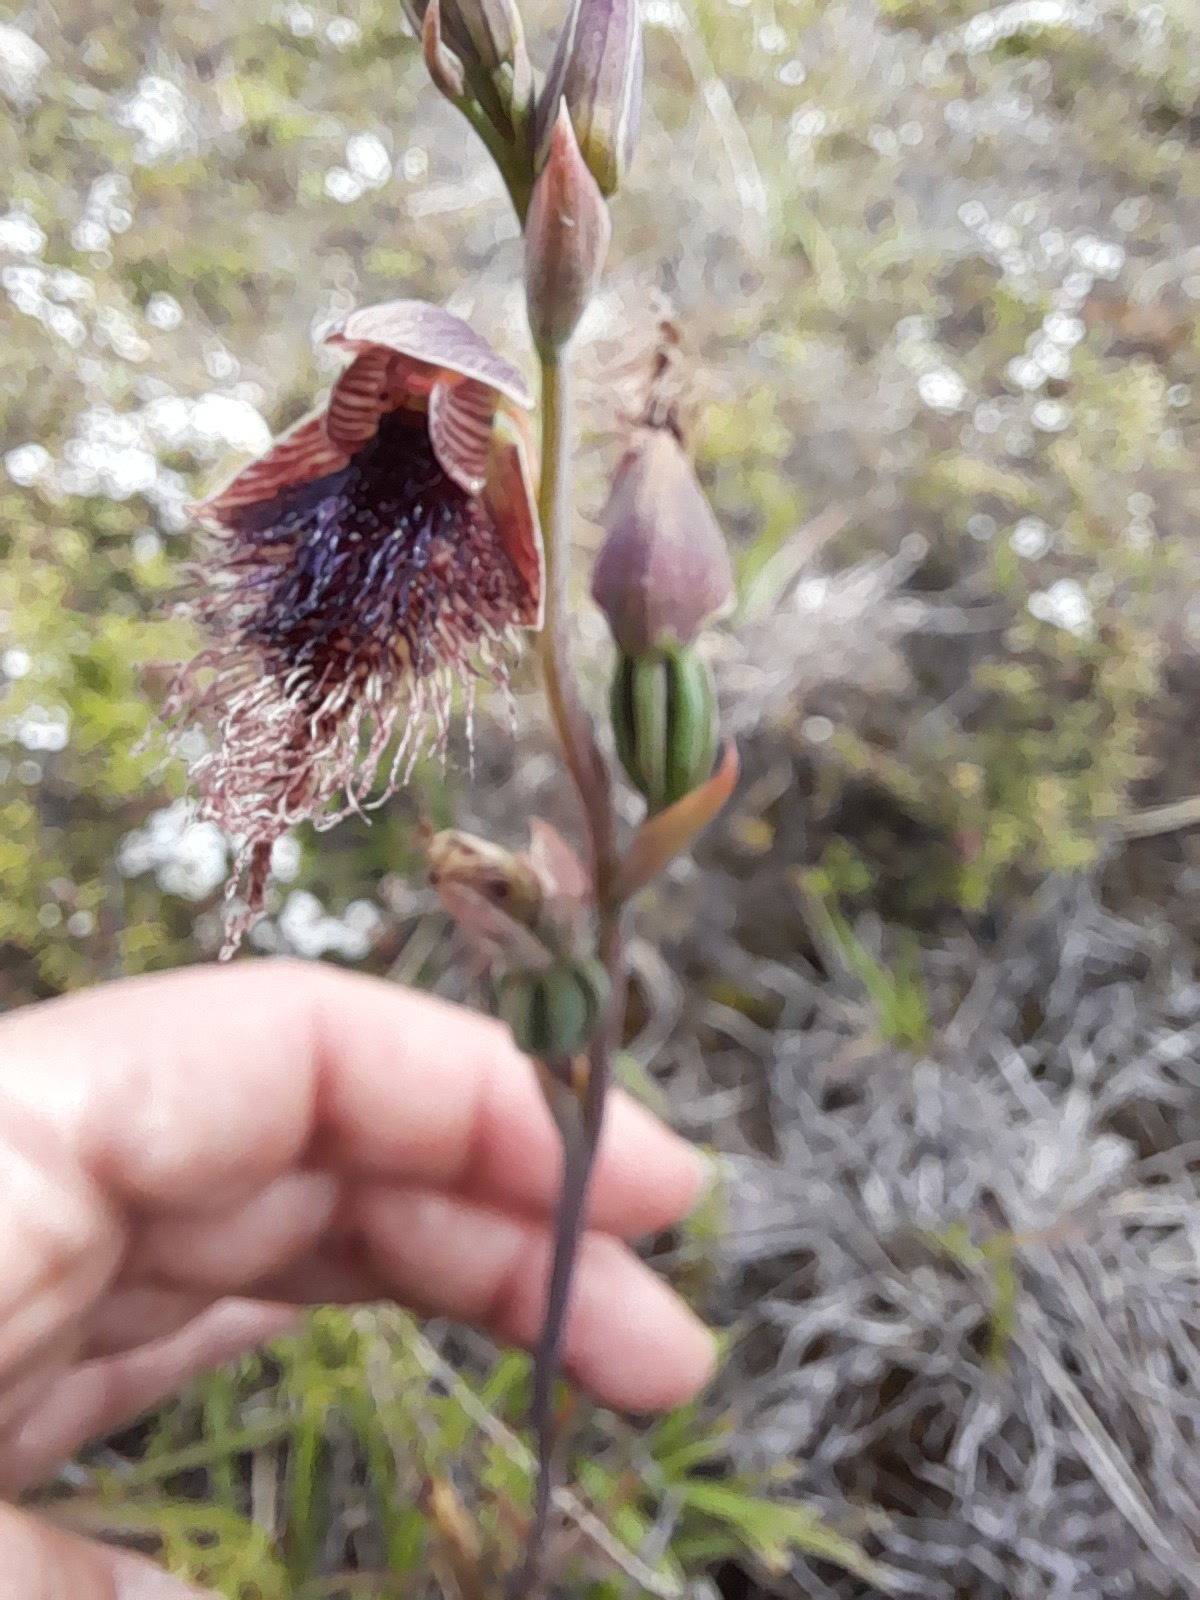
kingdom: Plantae
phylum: Tracheophyta
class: Liliopsida
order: Asparagales
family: Orchidaceae
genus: Calochilus
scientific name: Calochilus robertsonii
